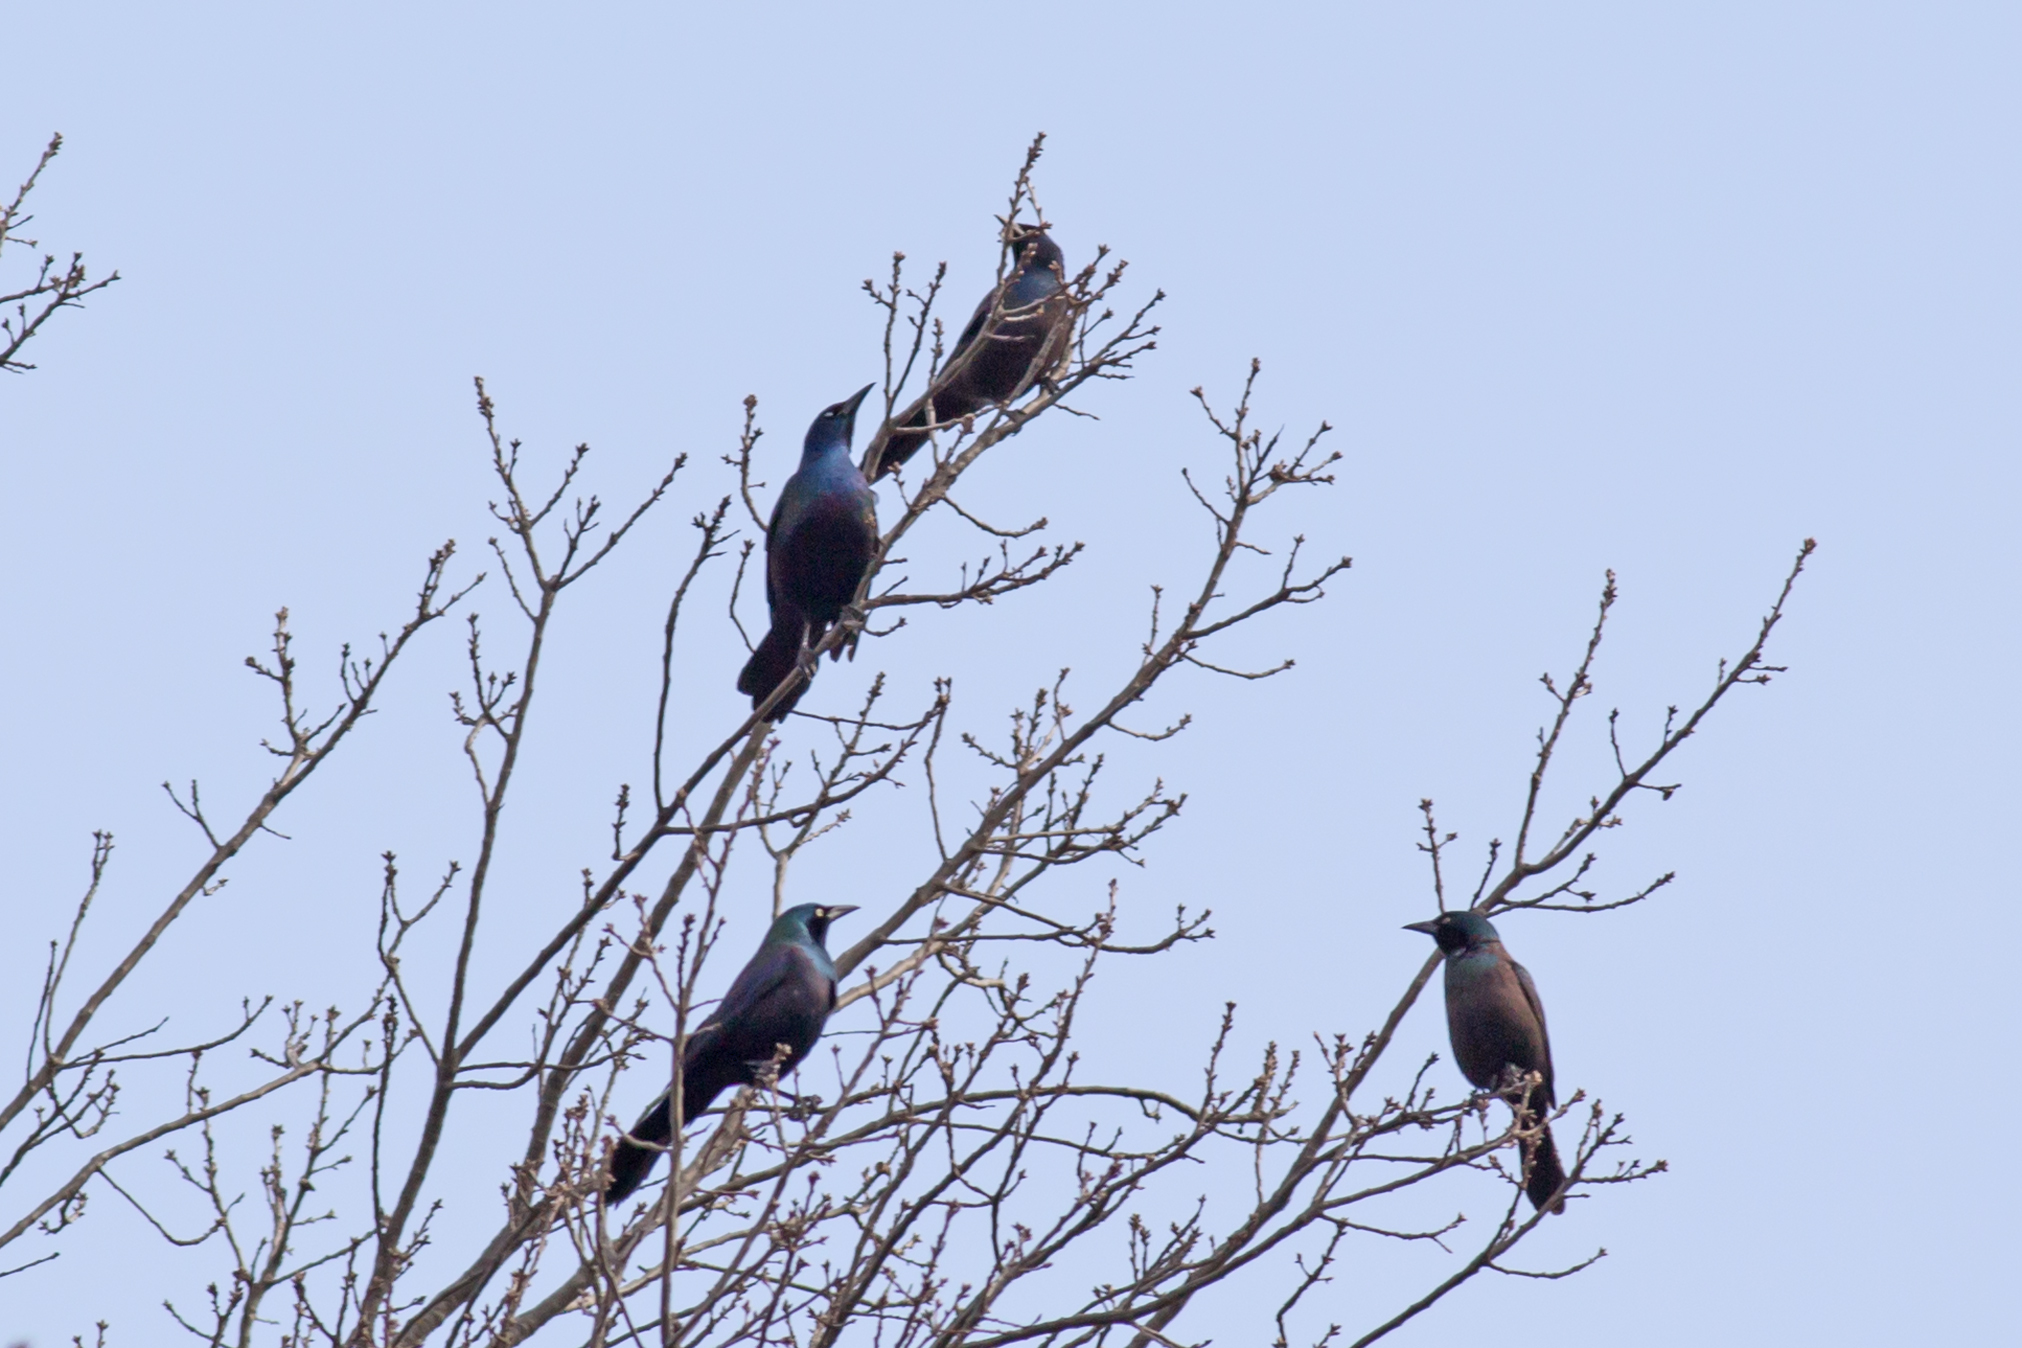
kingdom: Animalia
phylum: Chordata
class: Aves
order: Passeriformes
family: Icteridae
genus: Quiscalus
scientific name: Quiscalus quiscula
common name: Common grackle
